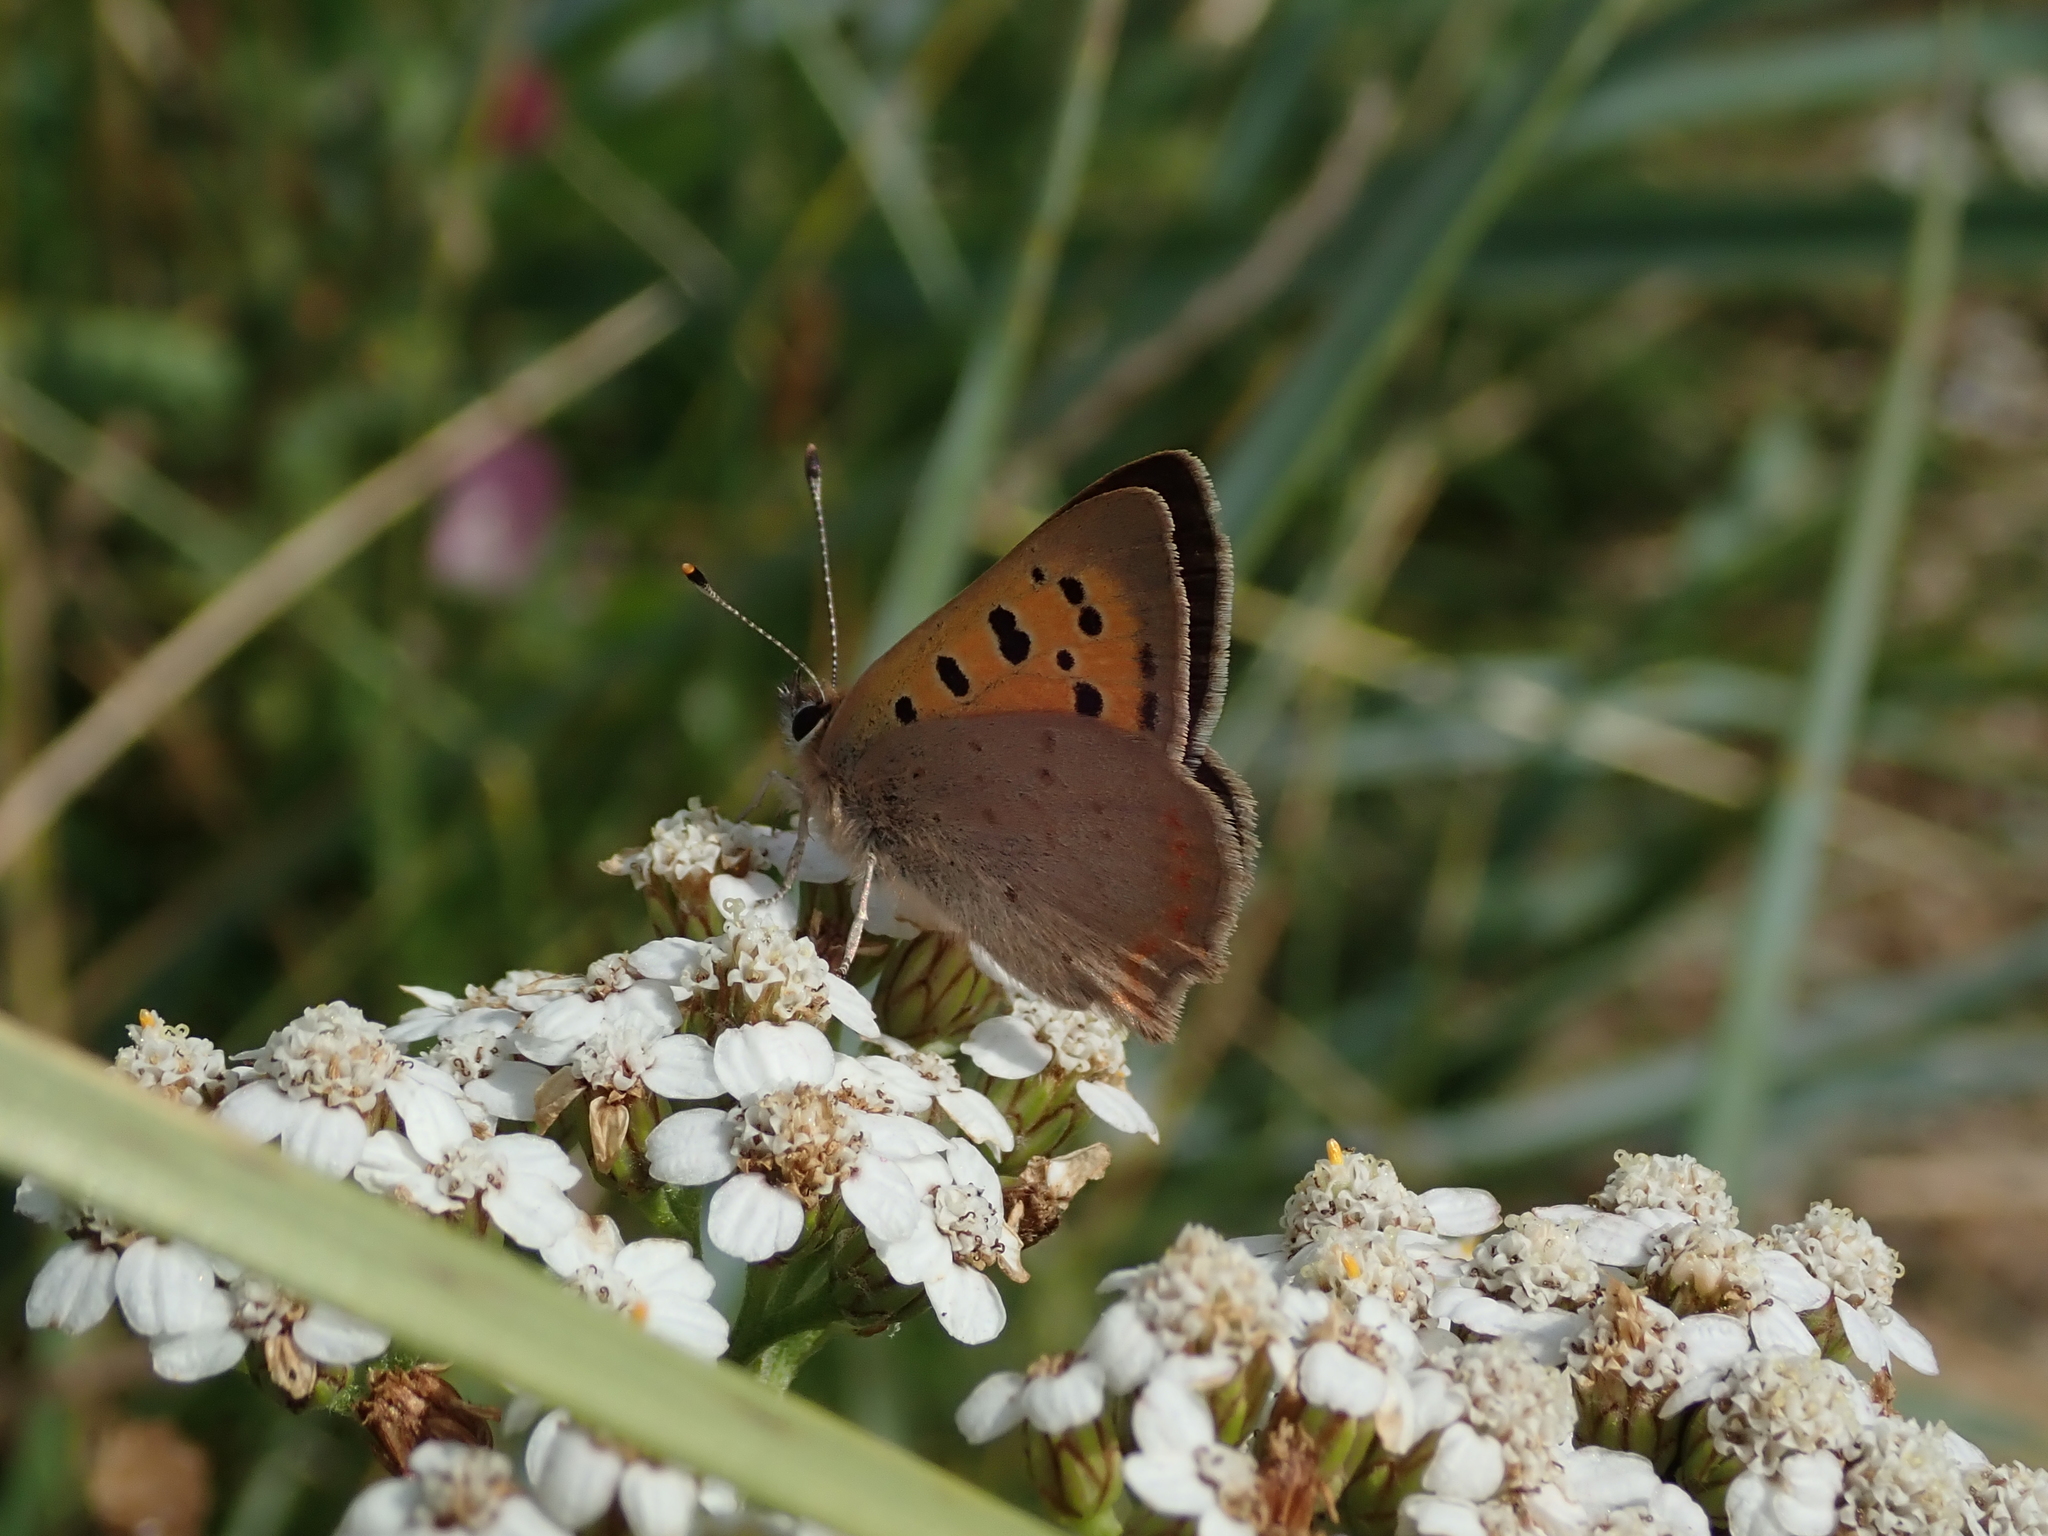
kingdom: Animalia
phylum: Arthropoda
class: Insecta
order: Lepidoptera
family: Lycaenidae
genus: Lycaena
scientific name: Lycaena phlaeas
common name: Small copper
